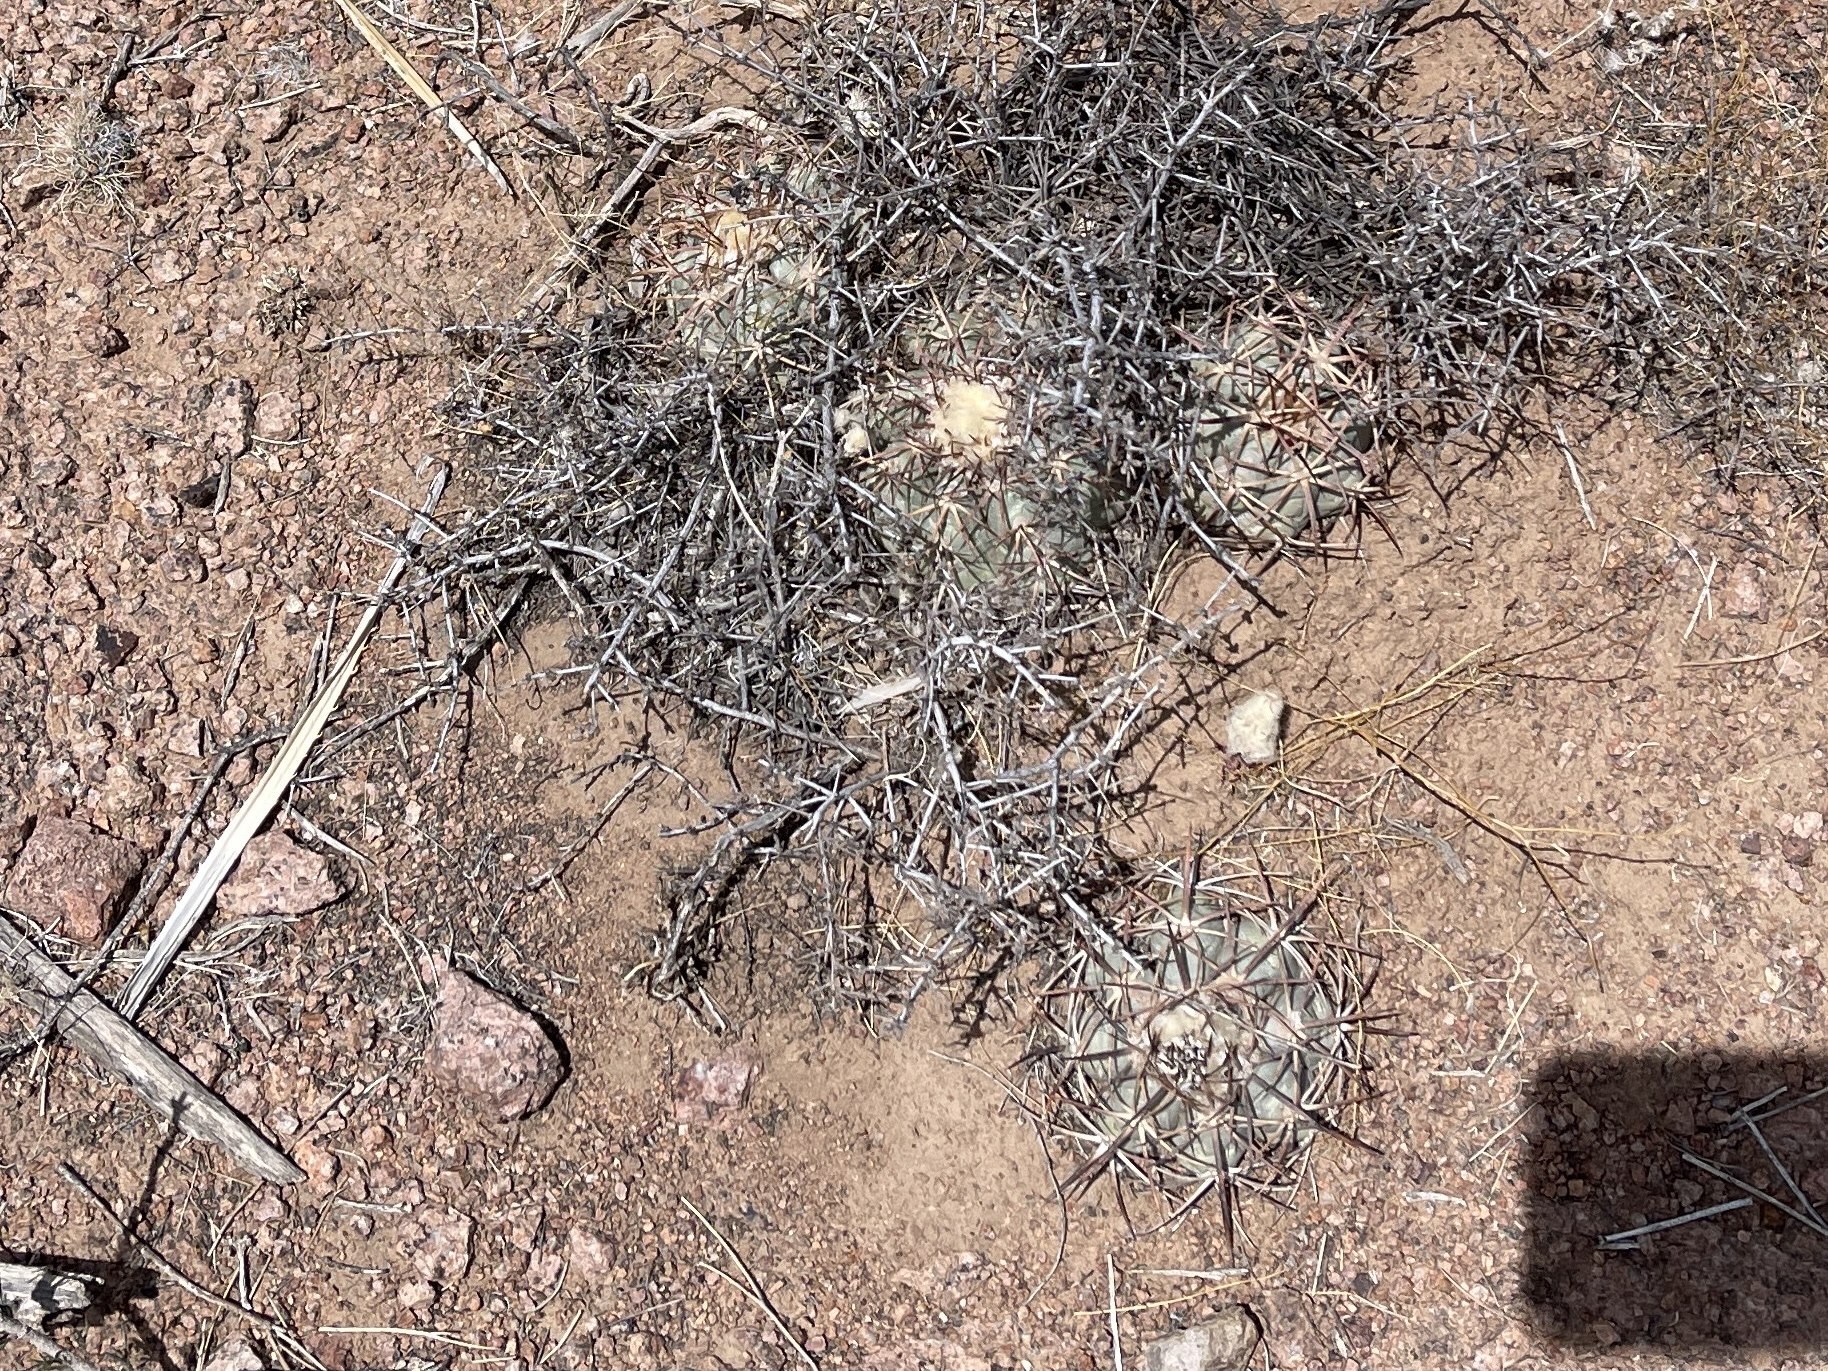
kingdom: Plantae
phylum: Tracheophyta
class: Magnoliopsida
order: Caryophyllales
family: Cactaceae
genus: Echinocactus
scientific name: Echinocactus horizonthalonius
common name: Devilshead
